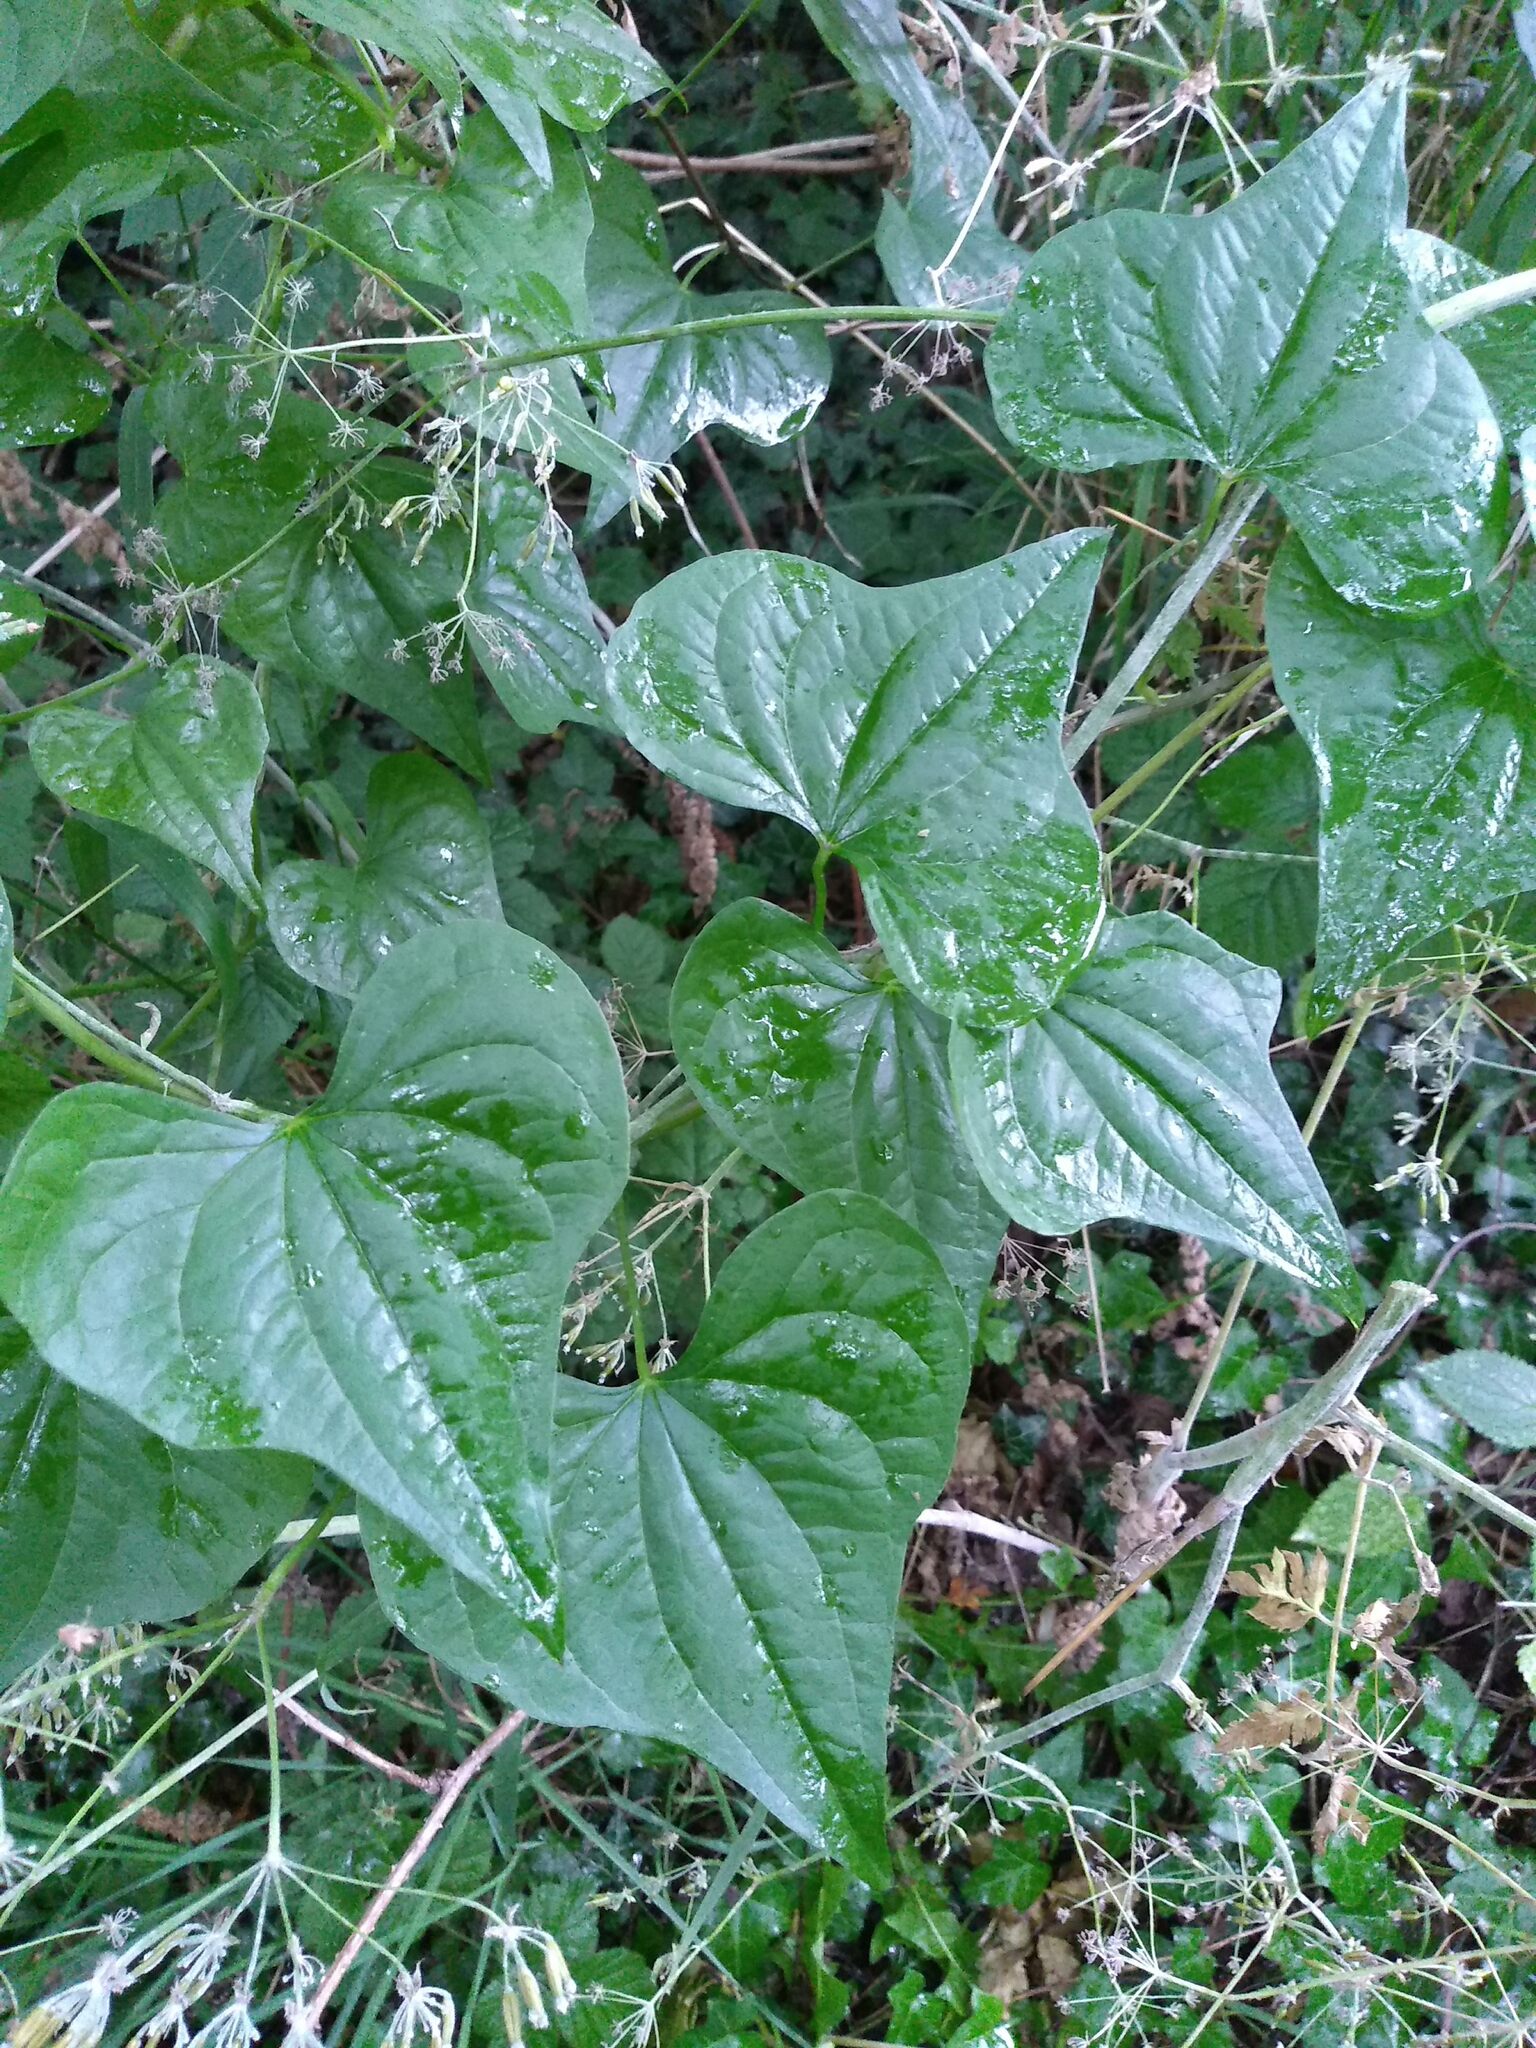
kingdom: Plantae
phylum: Tracheophyta
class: Liliopsida
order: Dioscoreales
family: Dioscoreaceae
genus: Dioscorea
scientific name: Dioscorea communis
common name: Black-bindweed
